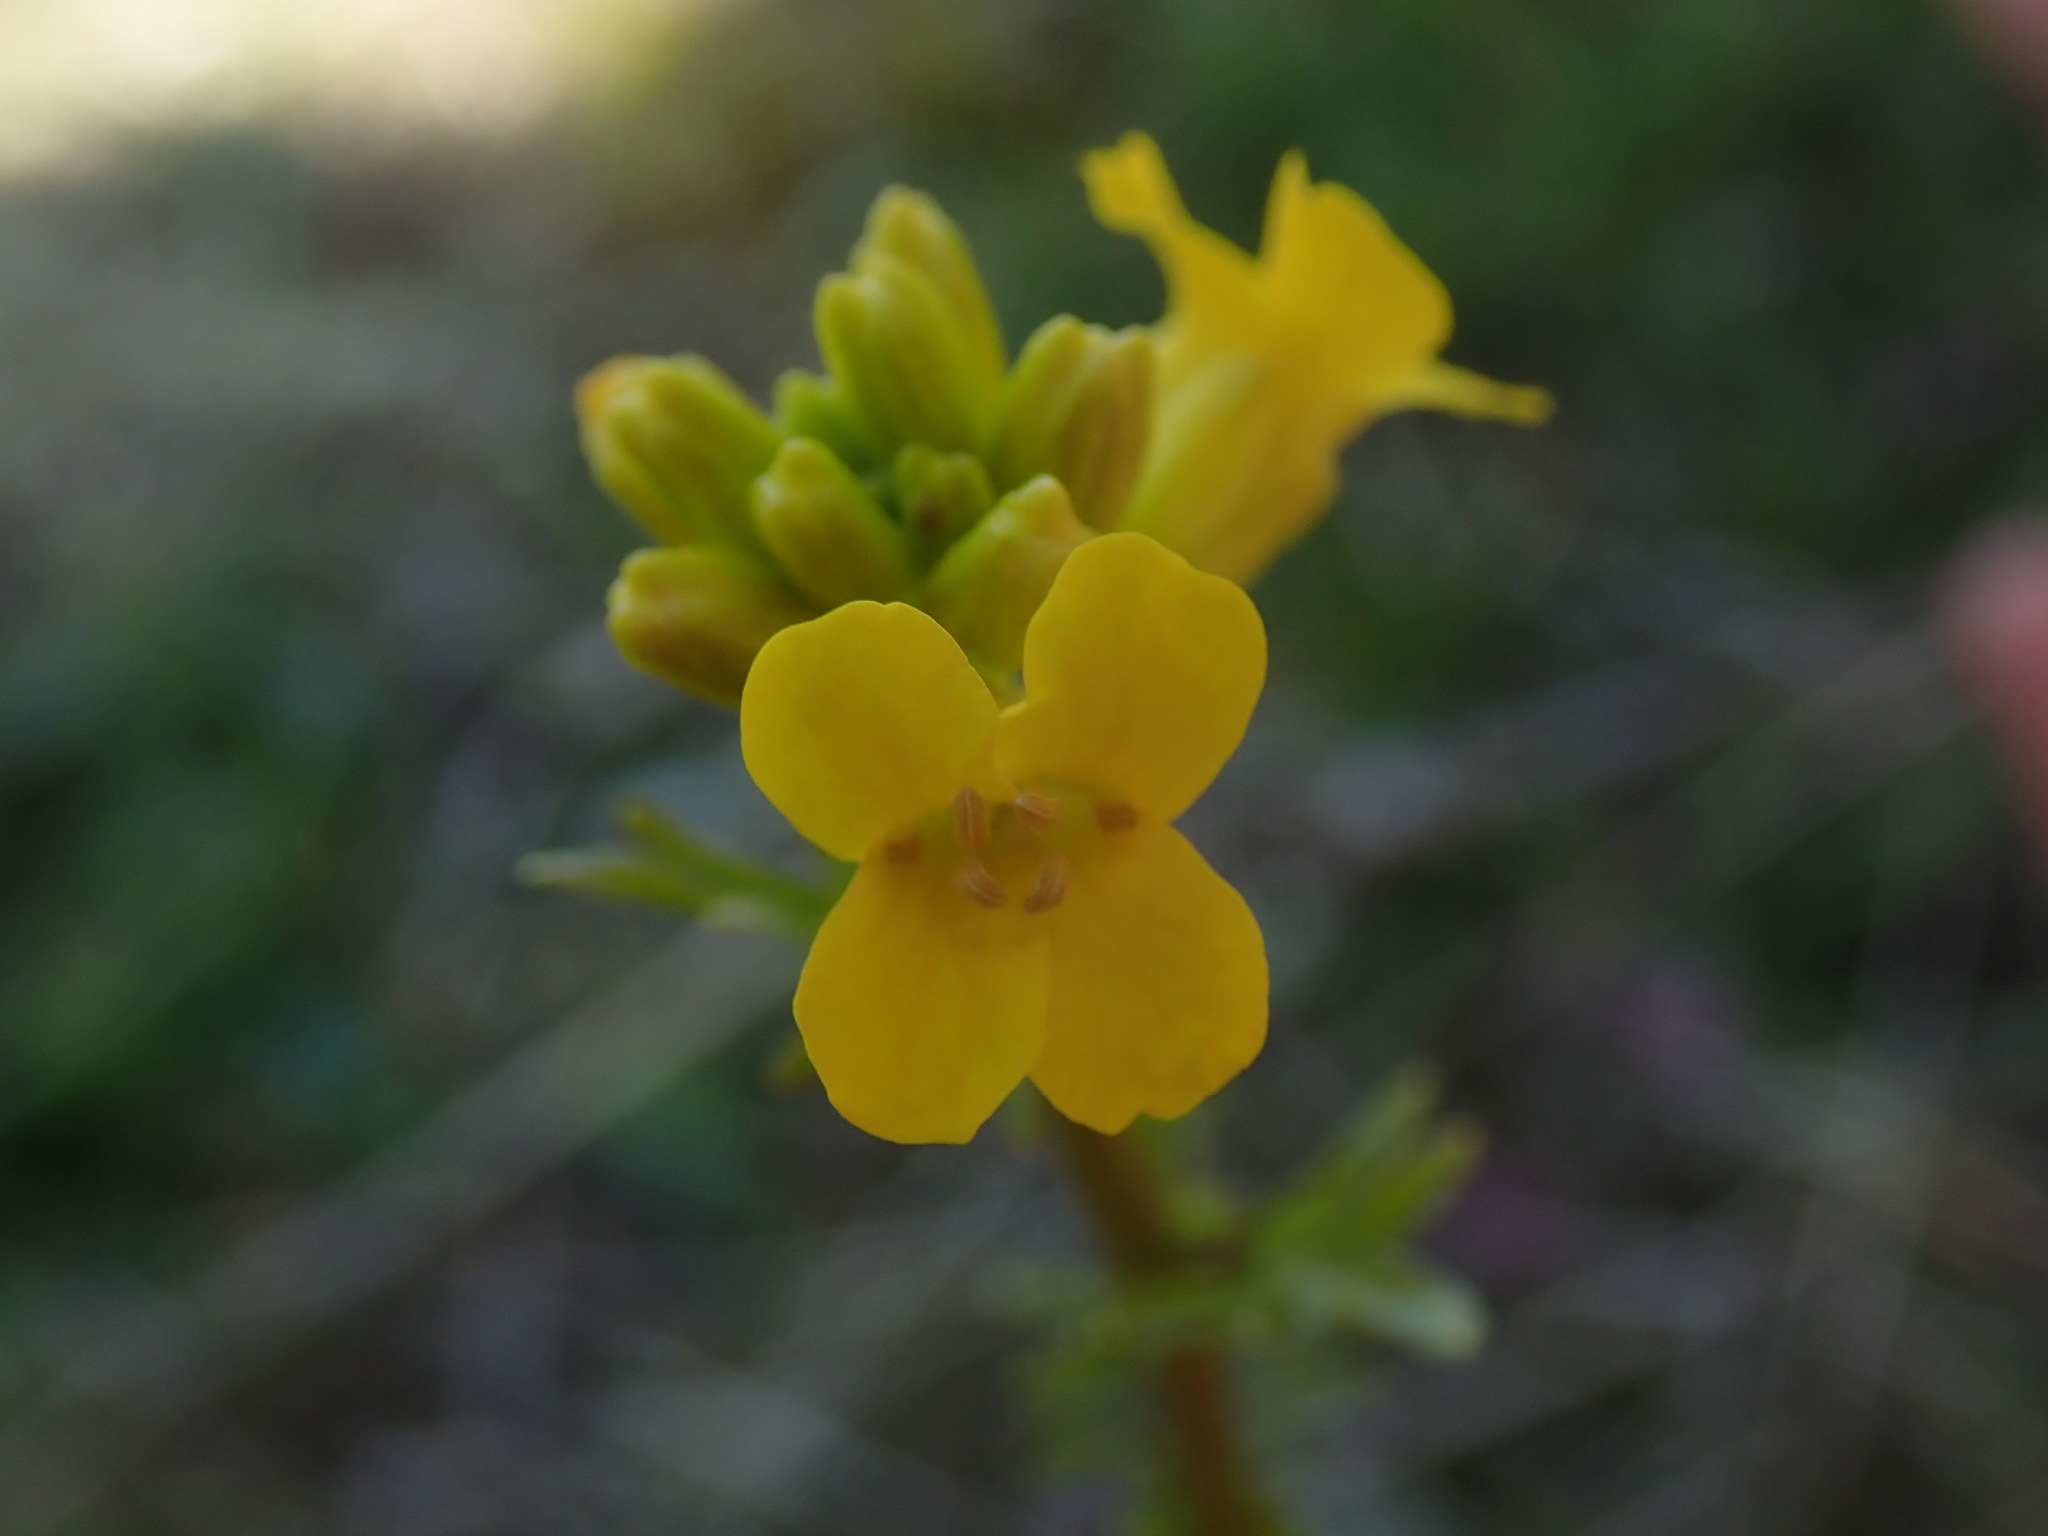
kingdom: Plantae
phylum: Tracheophyta
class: Magnoliopsida
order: Brassicales
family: Brassicaceae
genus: Barbarea
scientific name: Barbarea orthoceras
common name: American wintercress
